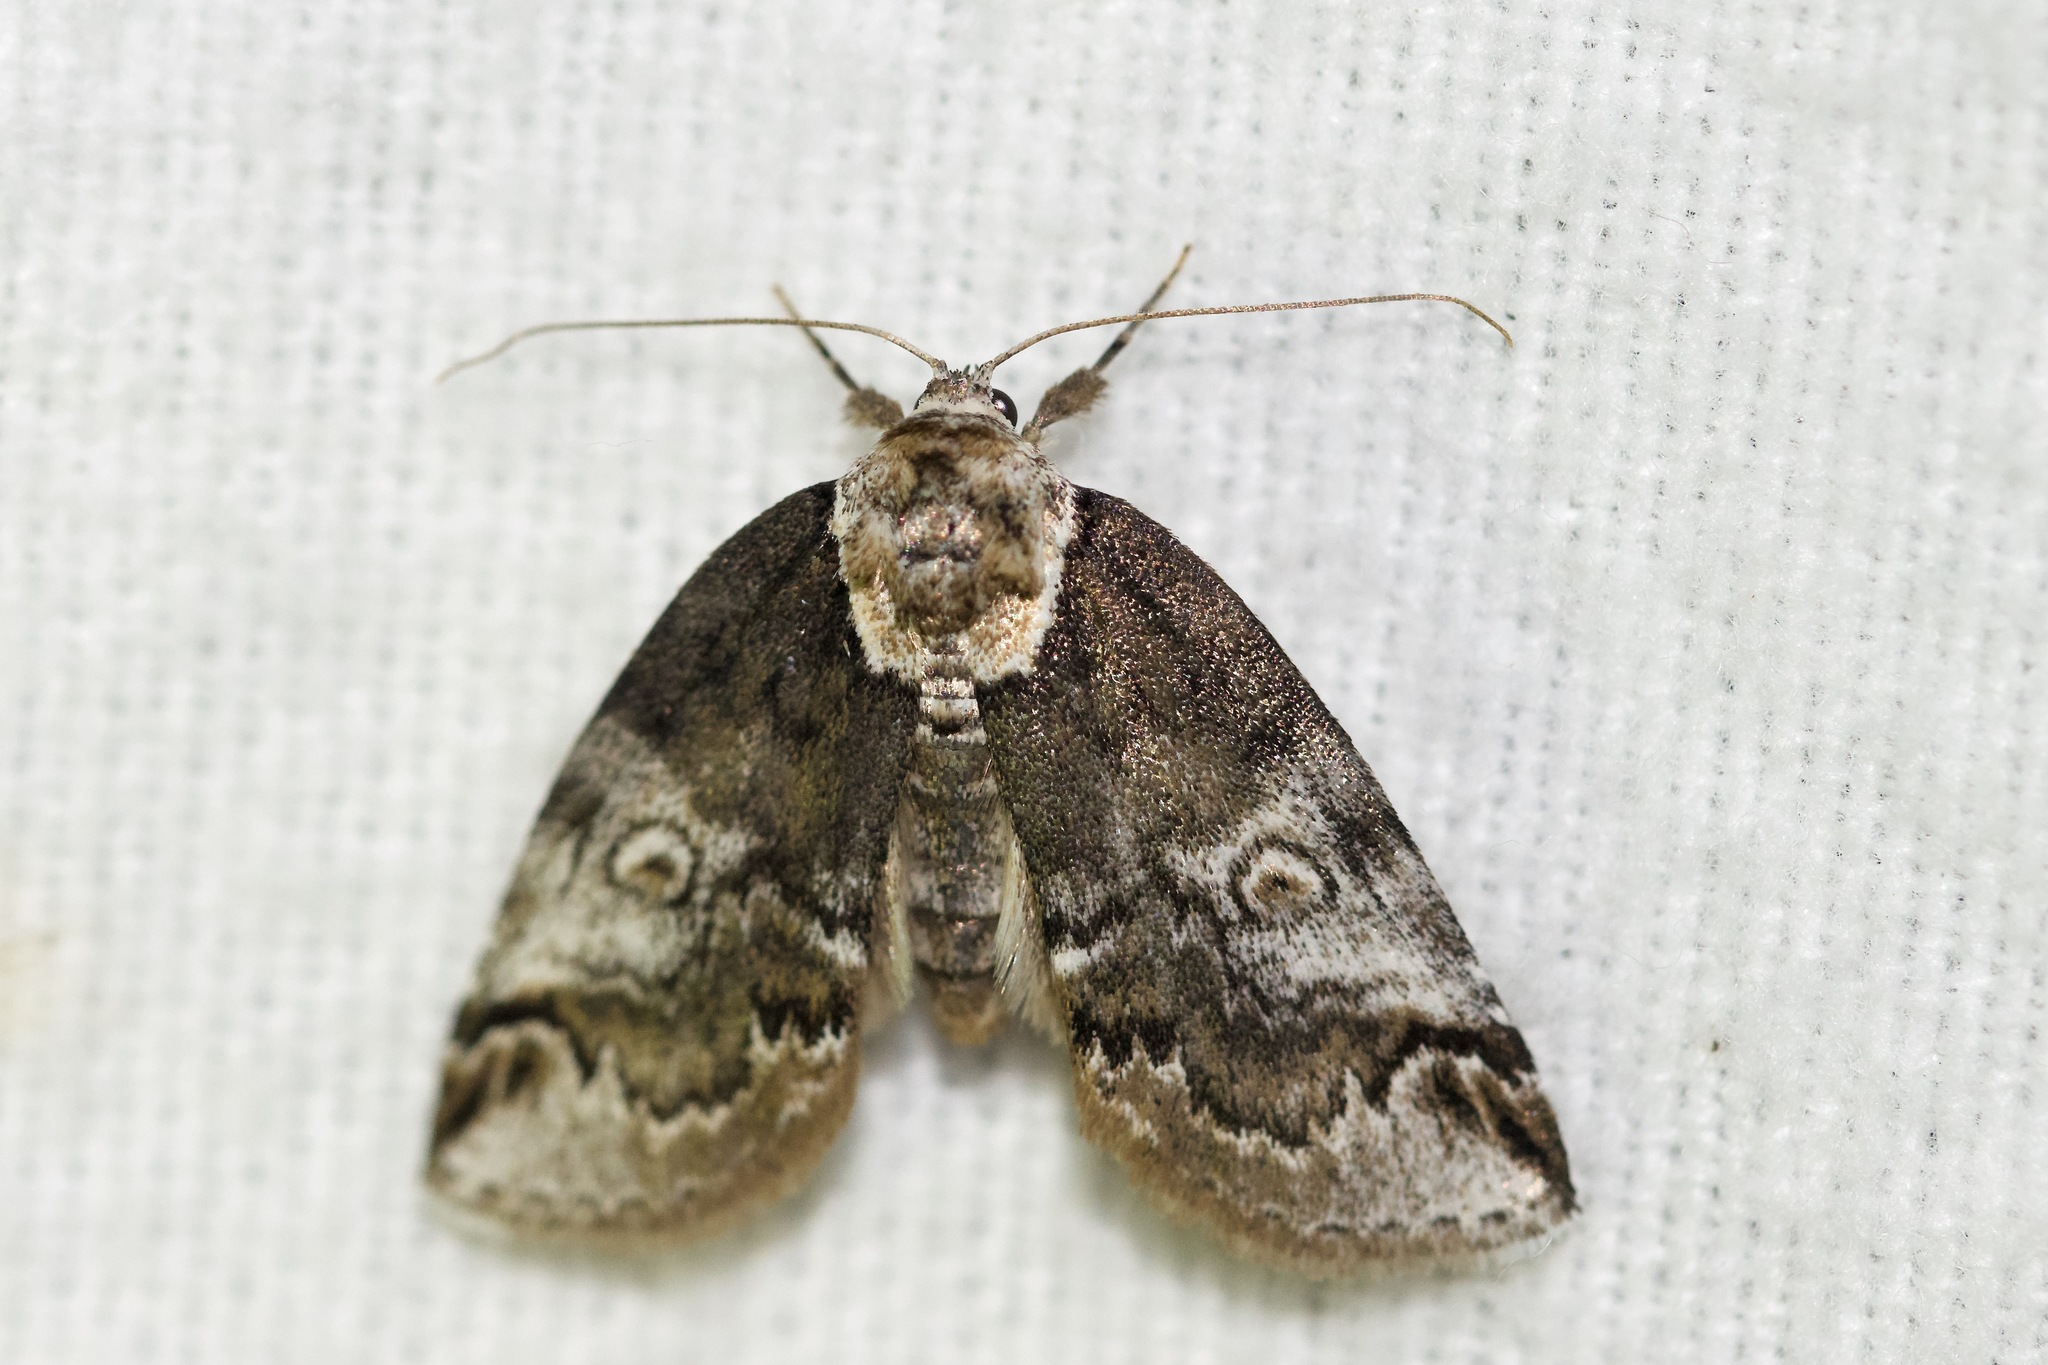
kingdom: Animalia
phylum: Arthropoda
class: Insecta
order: Lepidoptera
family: Nolidae
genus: Baileya
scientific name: Baileya ophthalmica
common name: Eyed baileya moth
